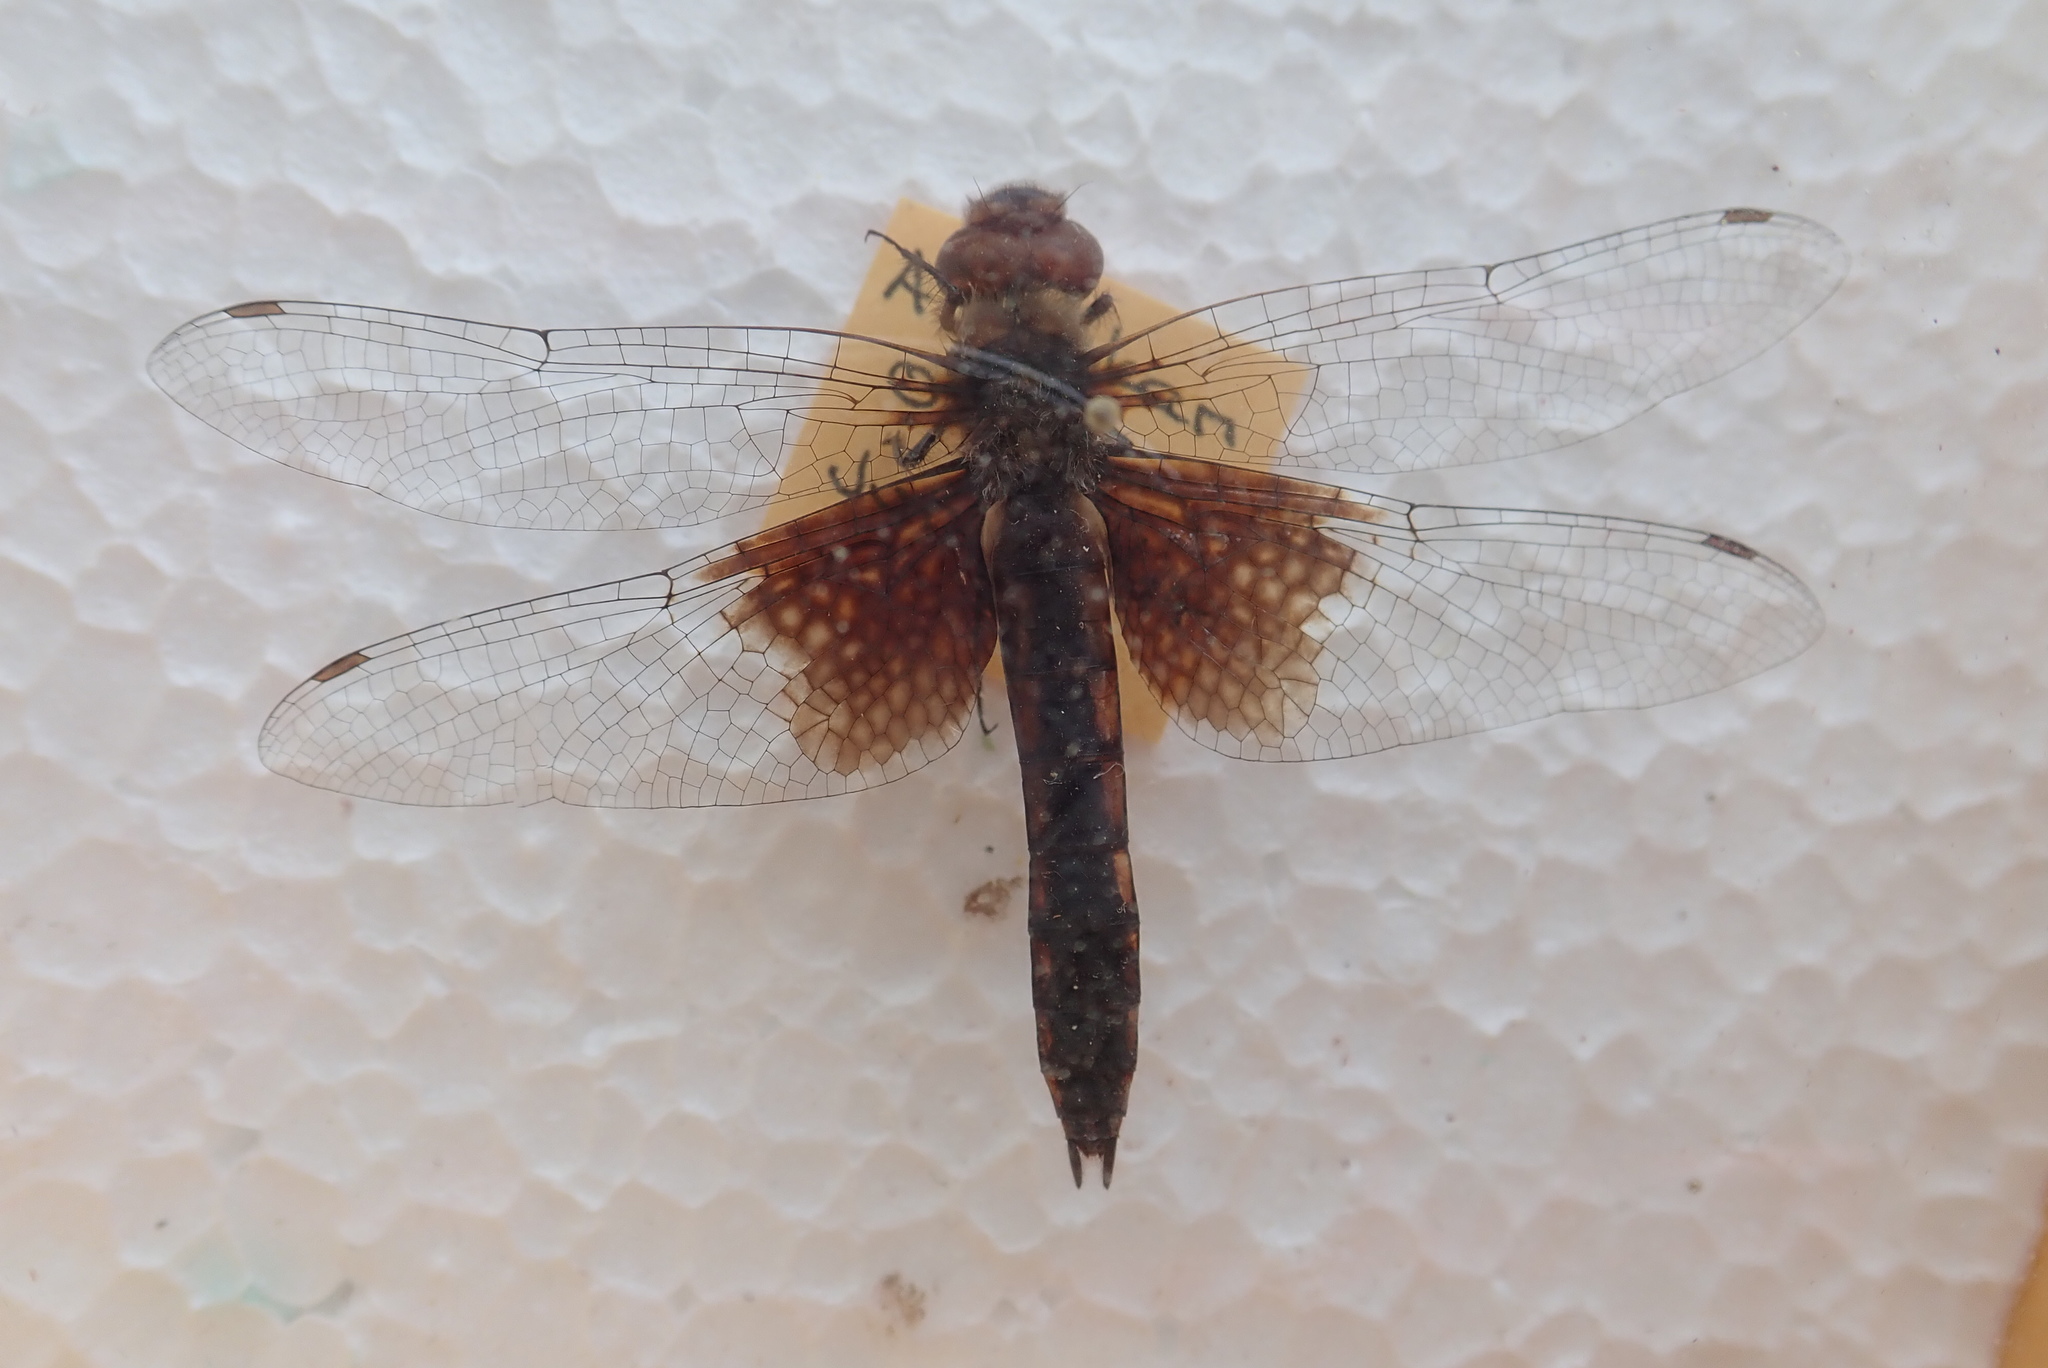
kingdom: Animalia
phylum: Arthropoda
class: Insecta
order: Odonata
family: Corduliidae
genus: Epitheca
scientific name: Epitheca cynosura
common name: Common baskettail
